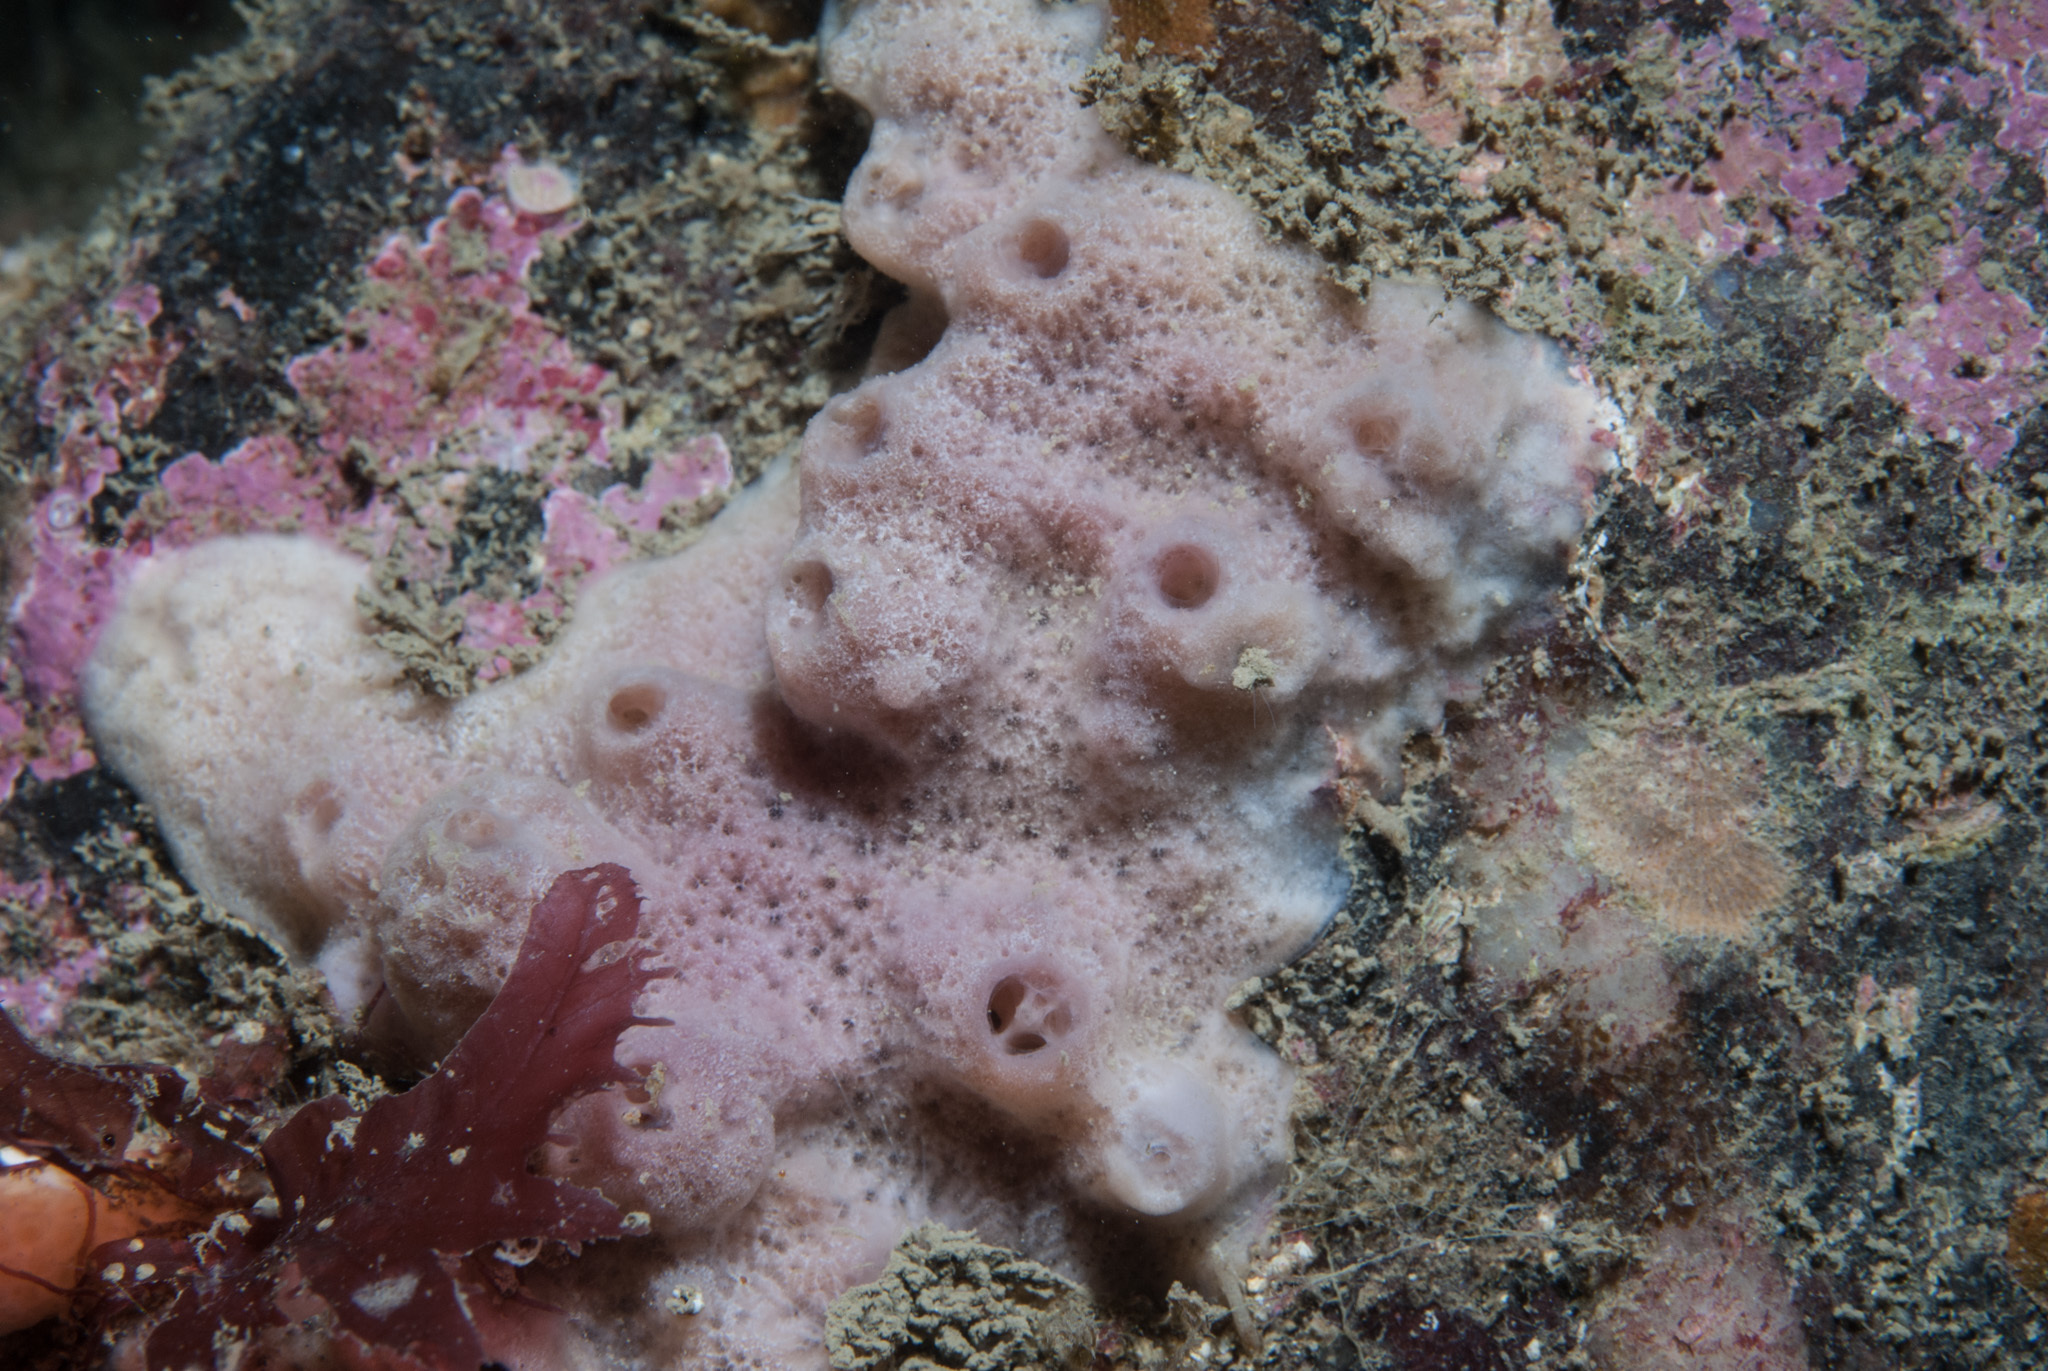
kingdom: Animalia
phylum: Porifera
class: Demospongiae
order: Haplosclerida
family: Chalinidae
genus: Haliclona
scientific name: Haliclona viscosa
